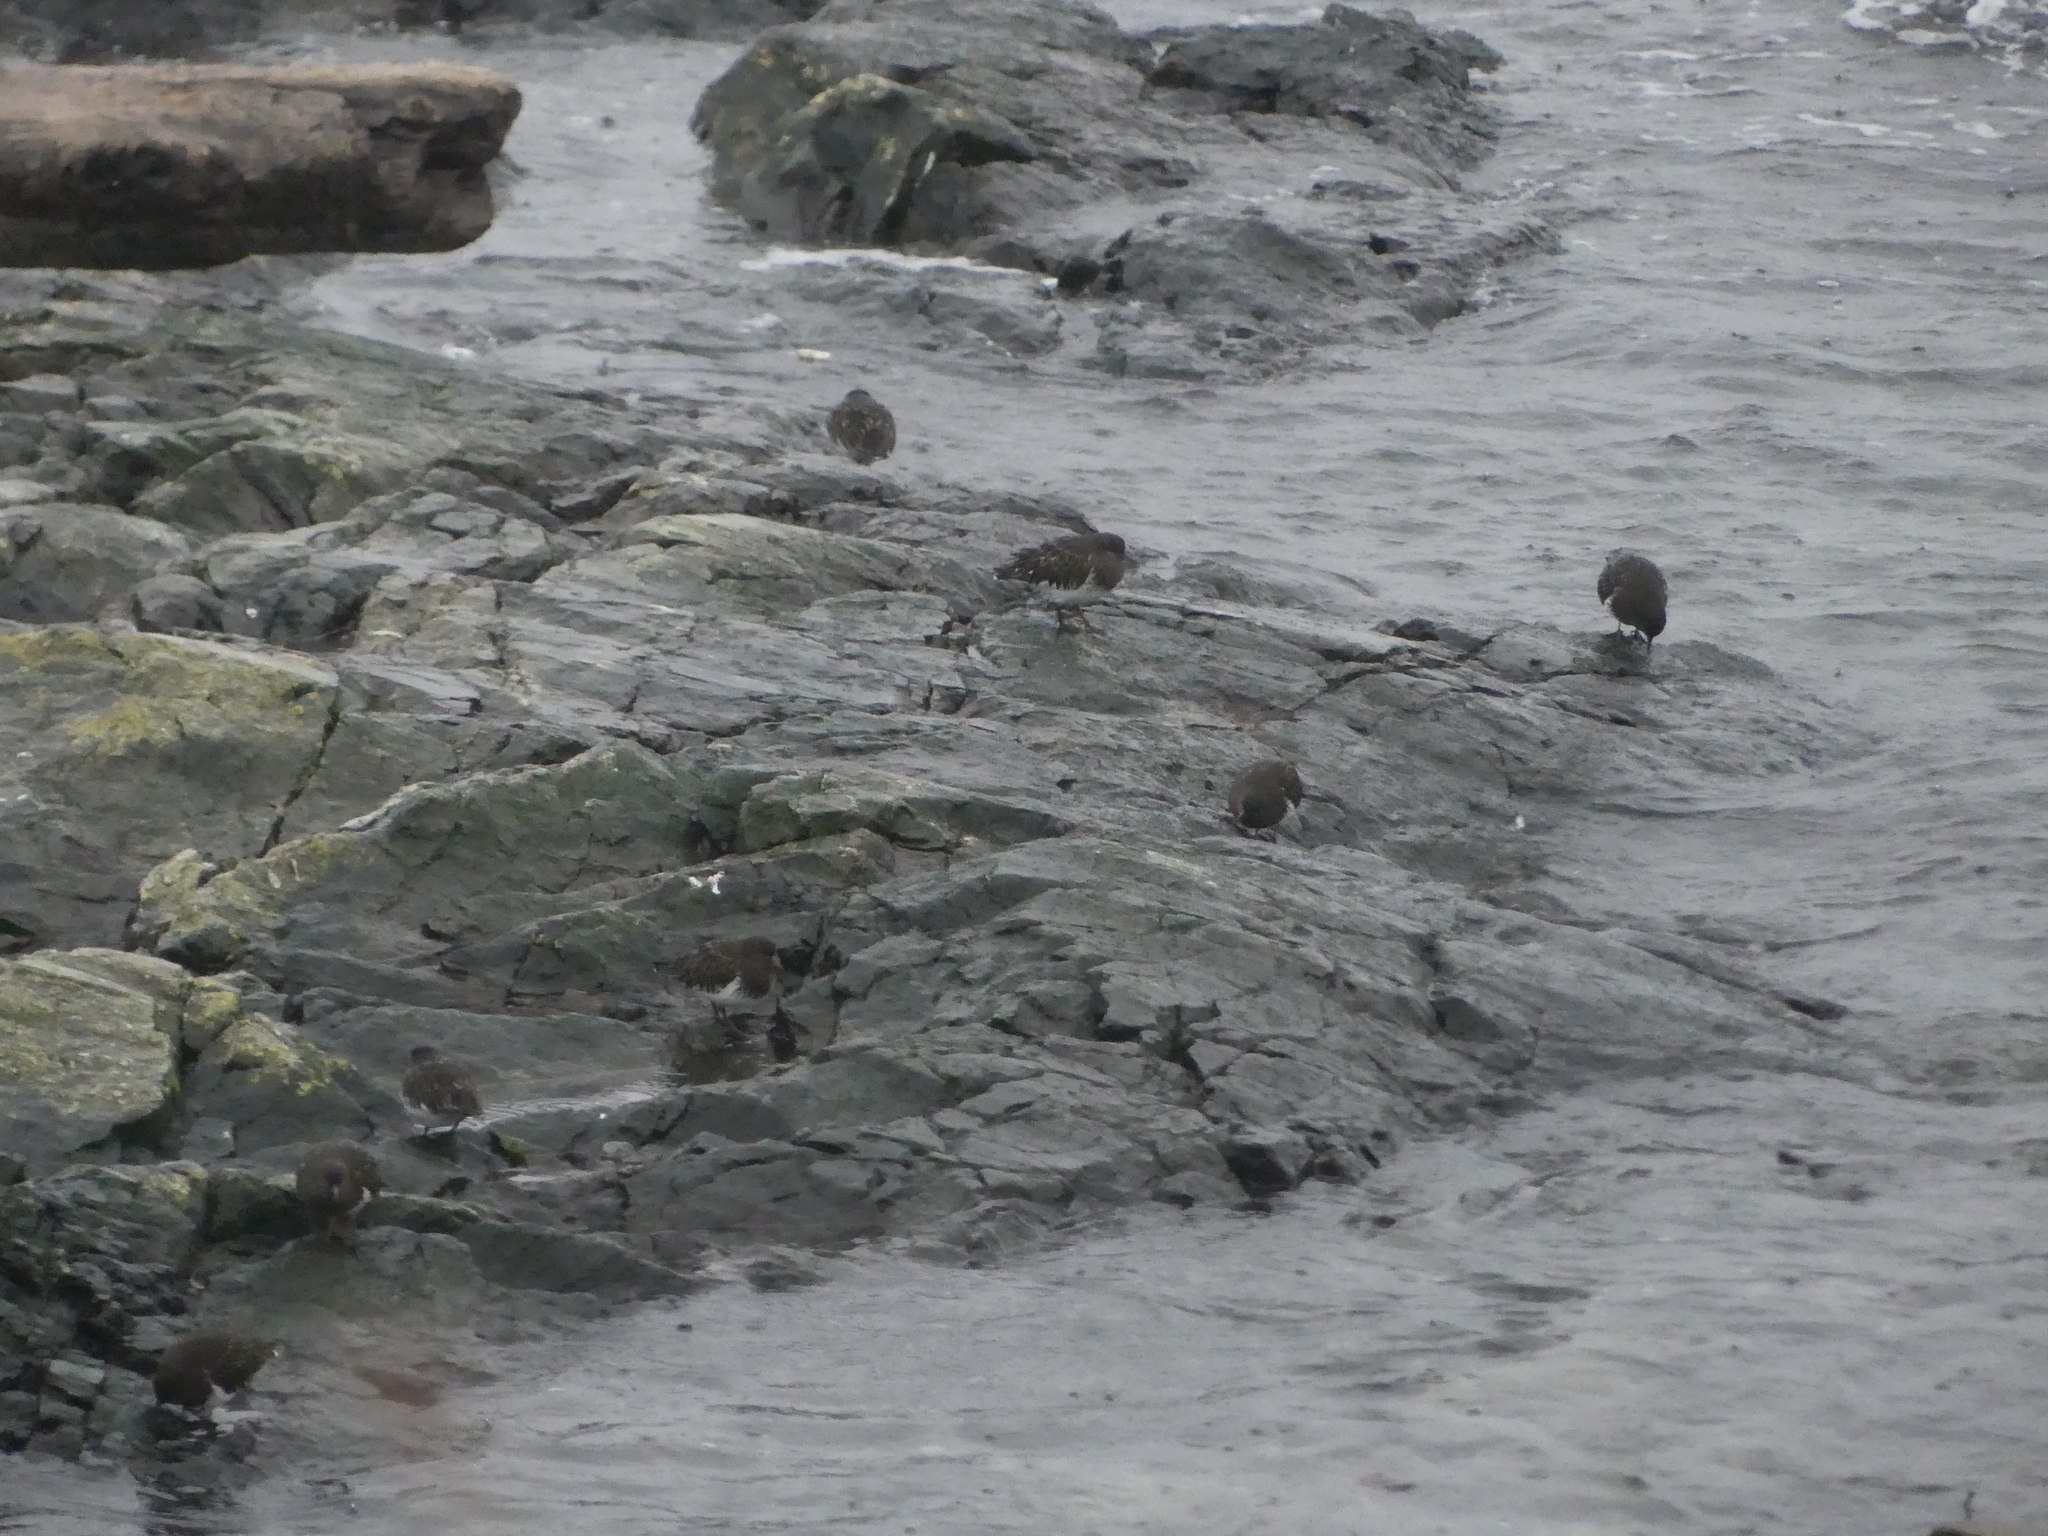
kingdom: Animalia
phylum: Chordata
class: Aves
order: Charadriiformes
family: Scolopacidae
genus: Arenaria
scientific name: Arenaria melanocephala
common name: Black turnstone
